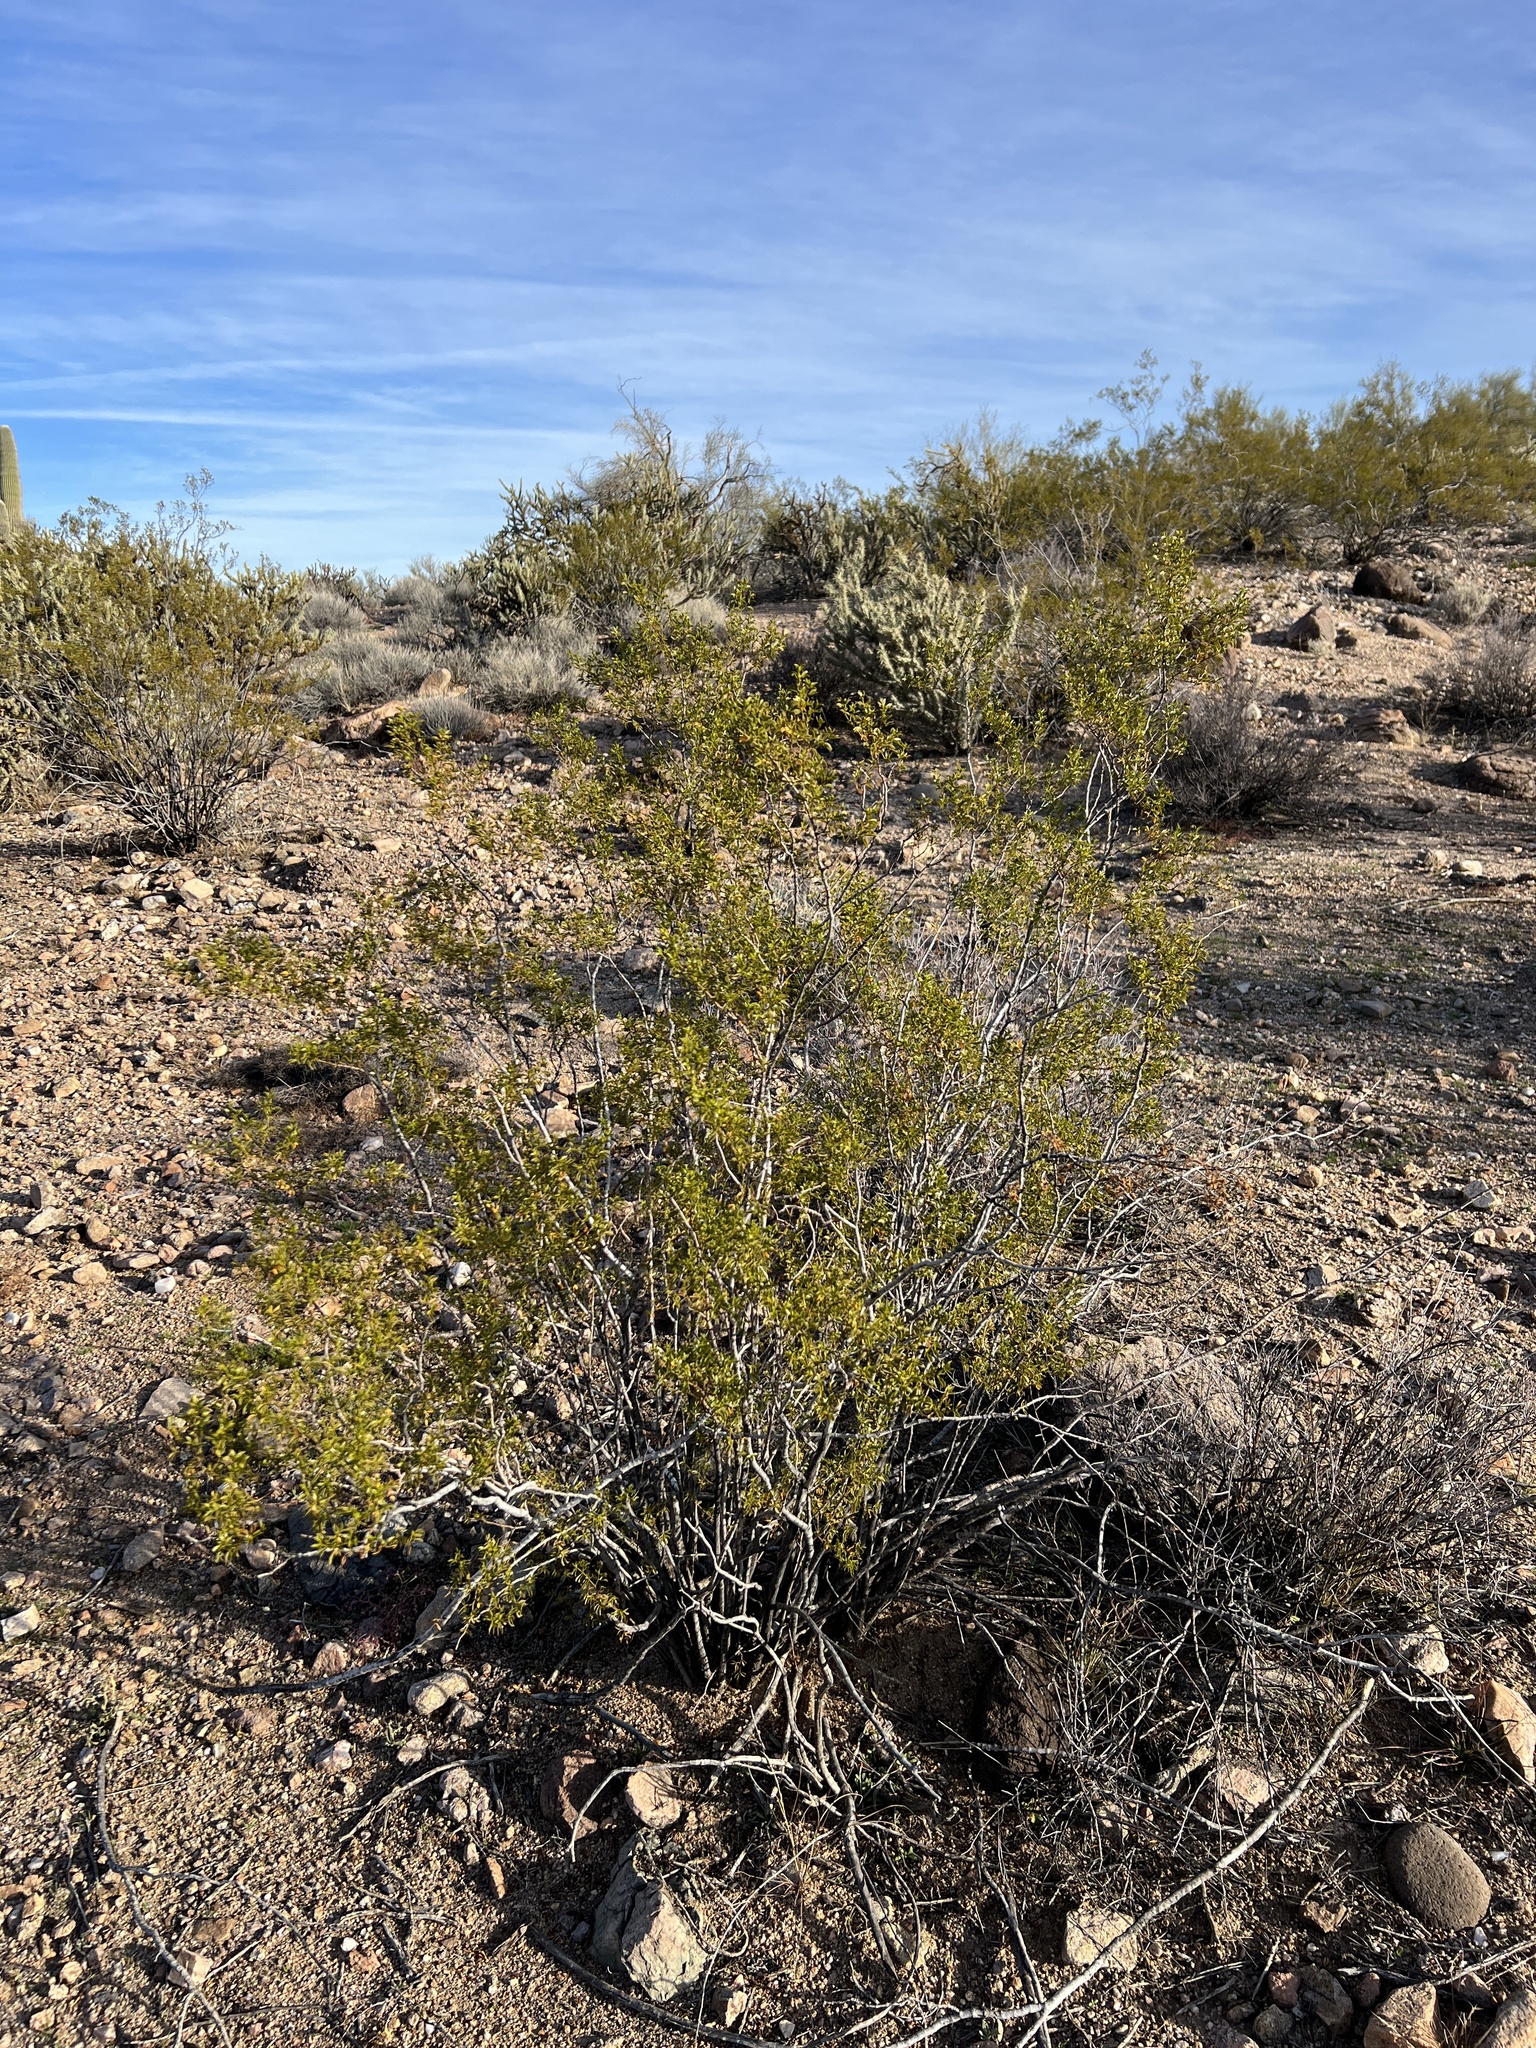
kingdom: Plantae
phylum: Tracheophyta
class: Magnoliopsida
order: Zygophyllales
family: Zygophyllaceae
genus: Larrea
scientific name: Larrea tridentata
